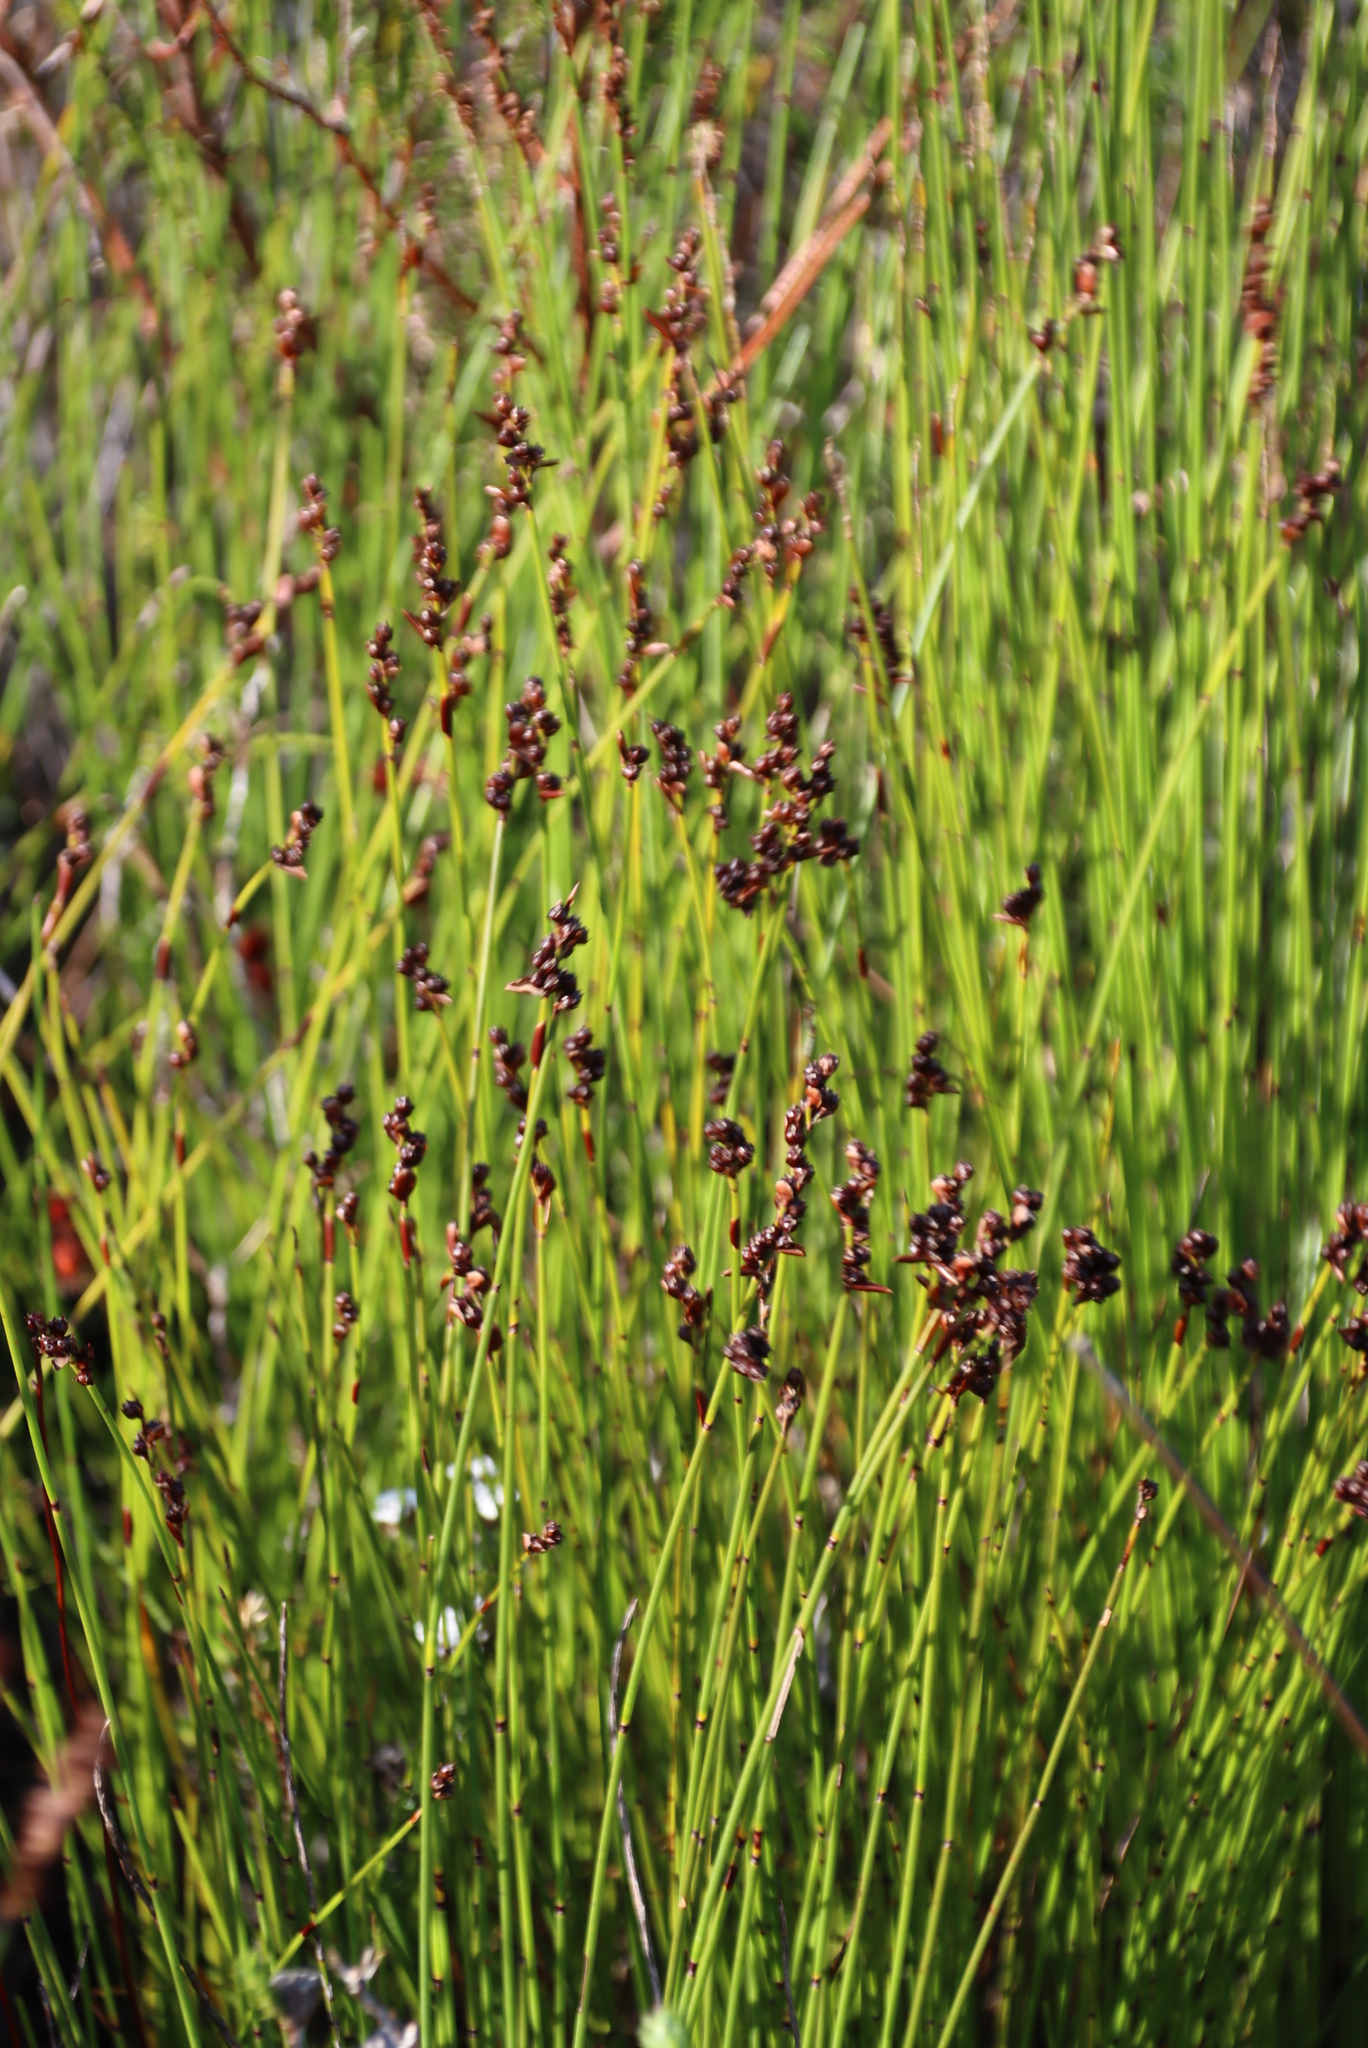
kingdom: Plantae
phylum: Tracheophyta
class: Liliopsida
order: Poales
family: Restionaceae
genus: Elegia
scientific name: Elegia ebracteata
